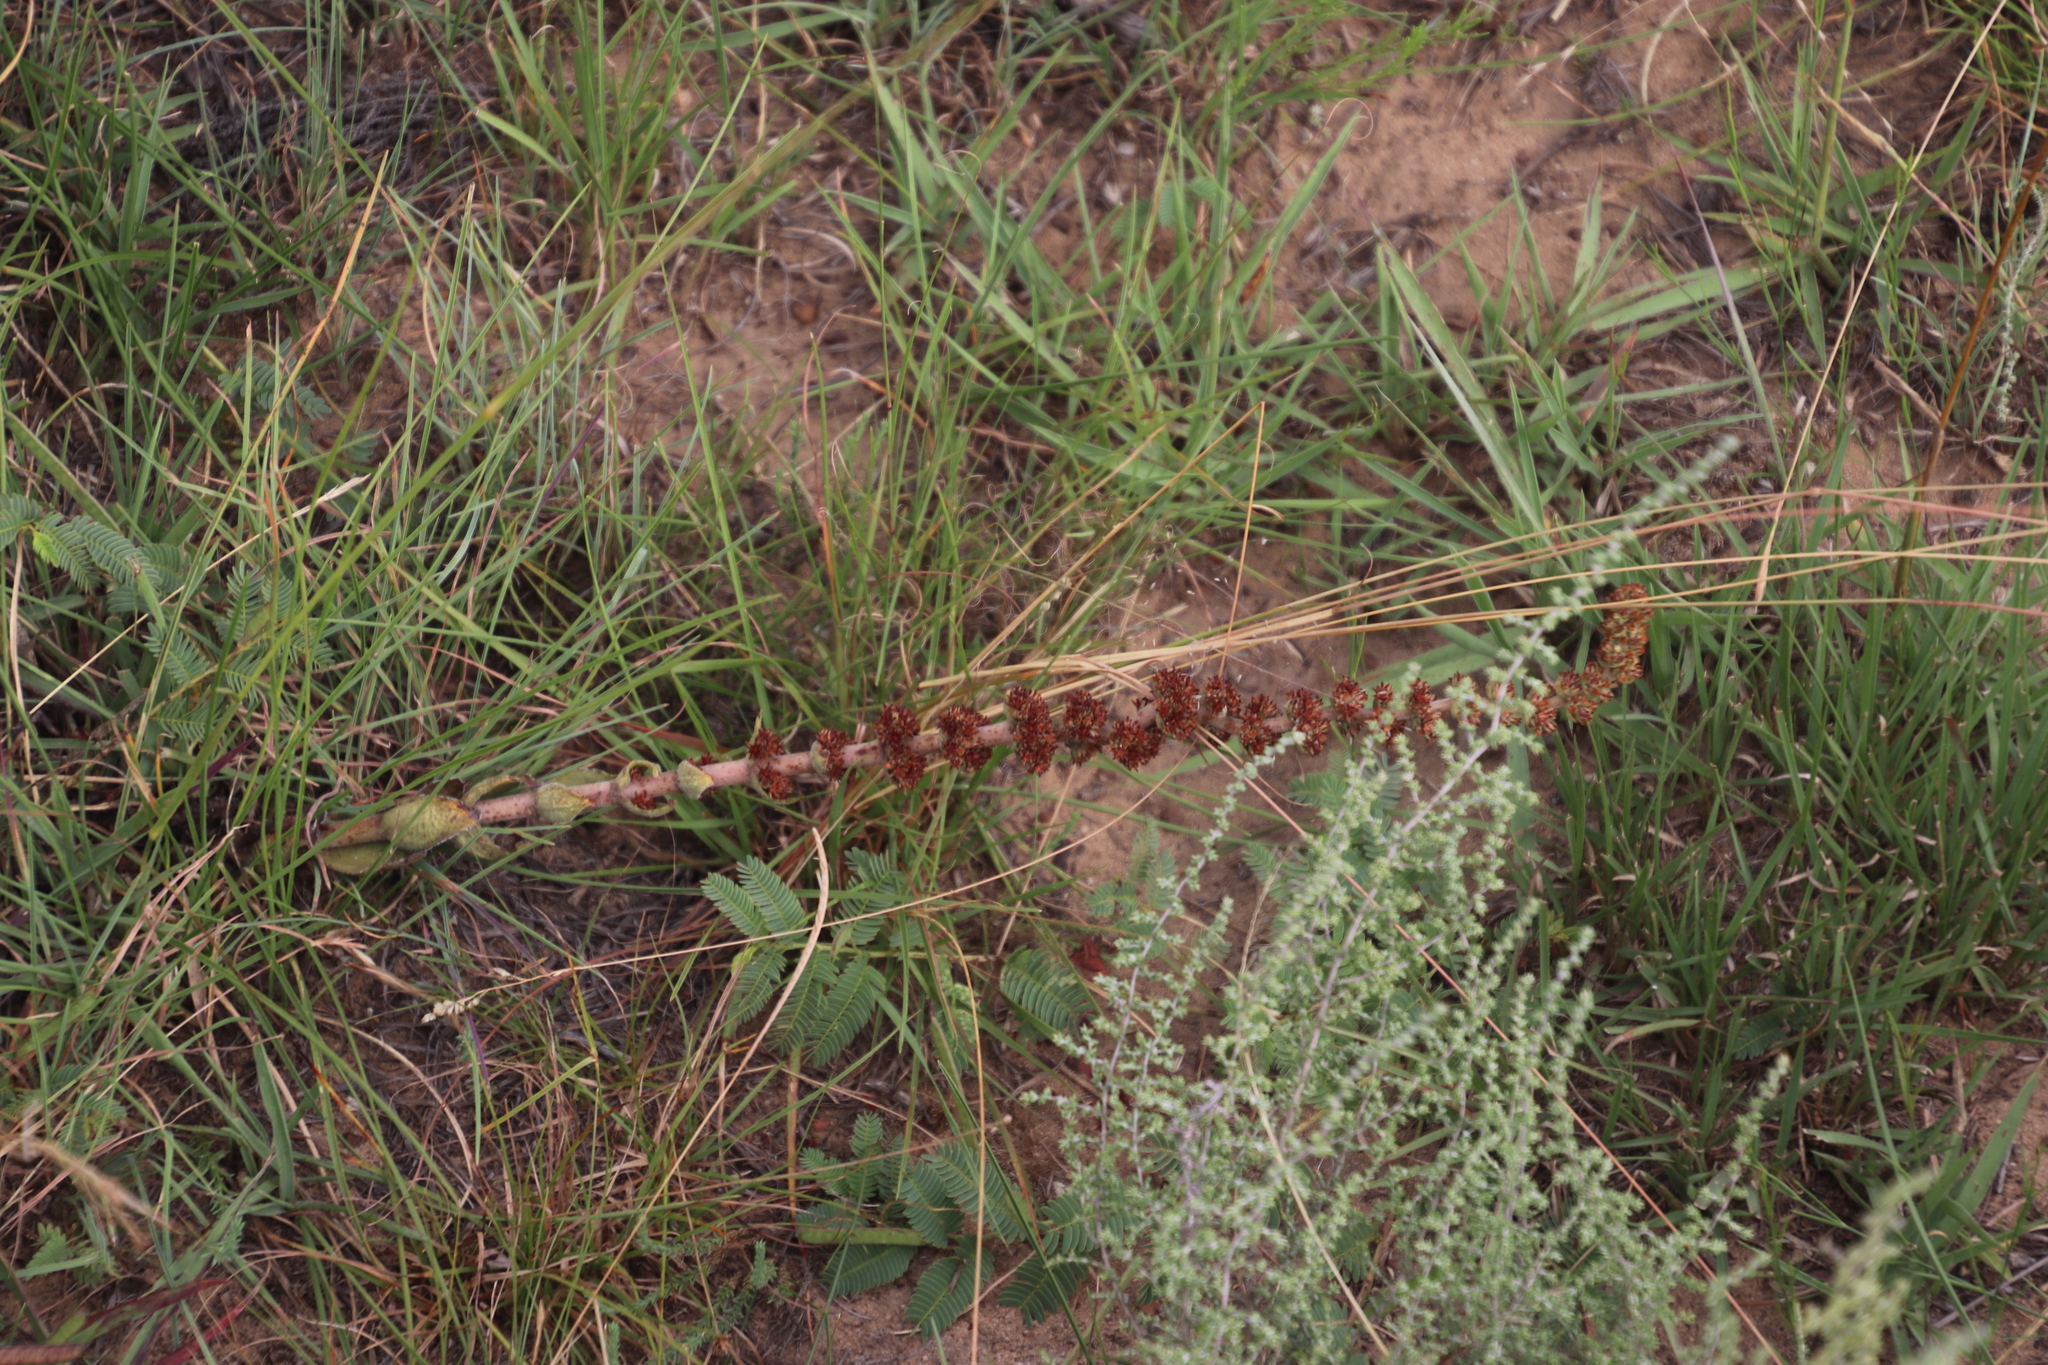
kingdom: Plantae
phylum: Tracheophyta
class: Magnoliopsida
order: Saxifragales
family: Crassulaceae
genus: Crassula
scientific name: Crassula nodulosa
